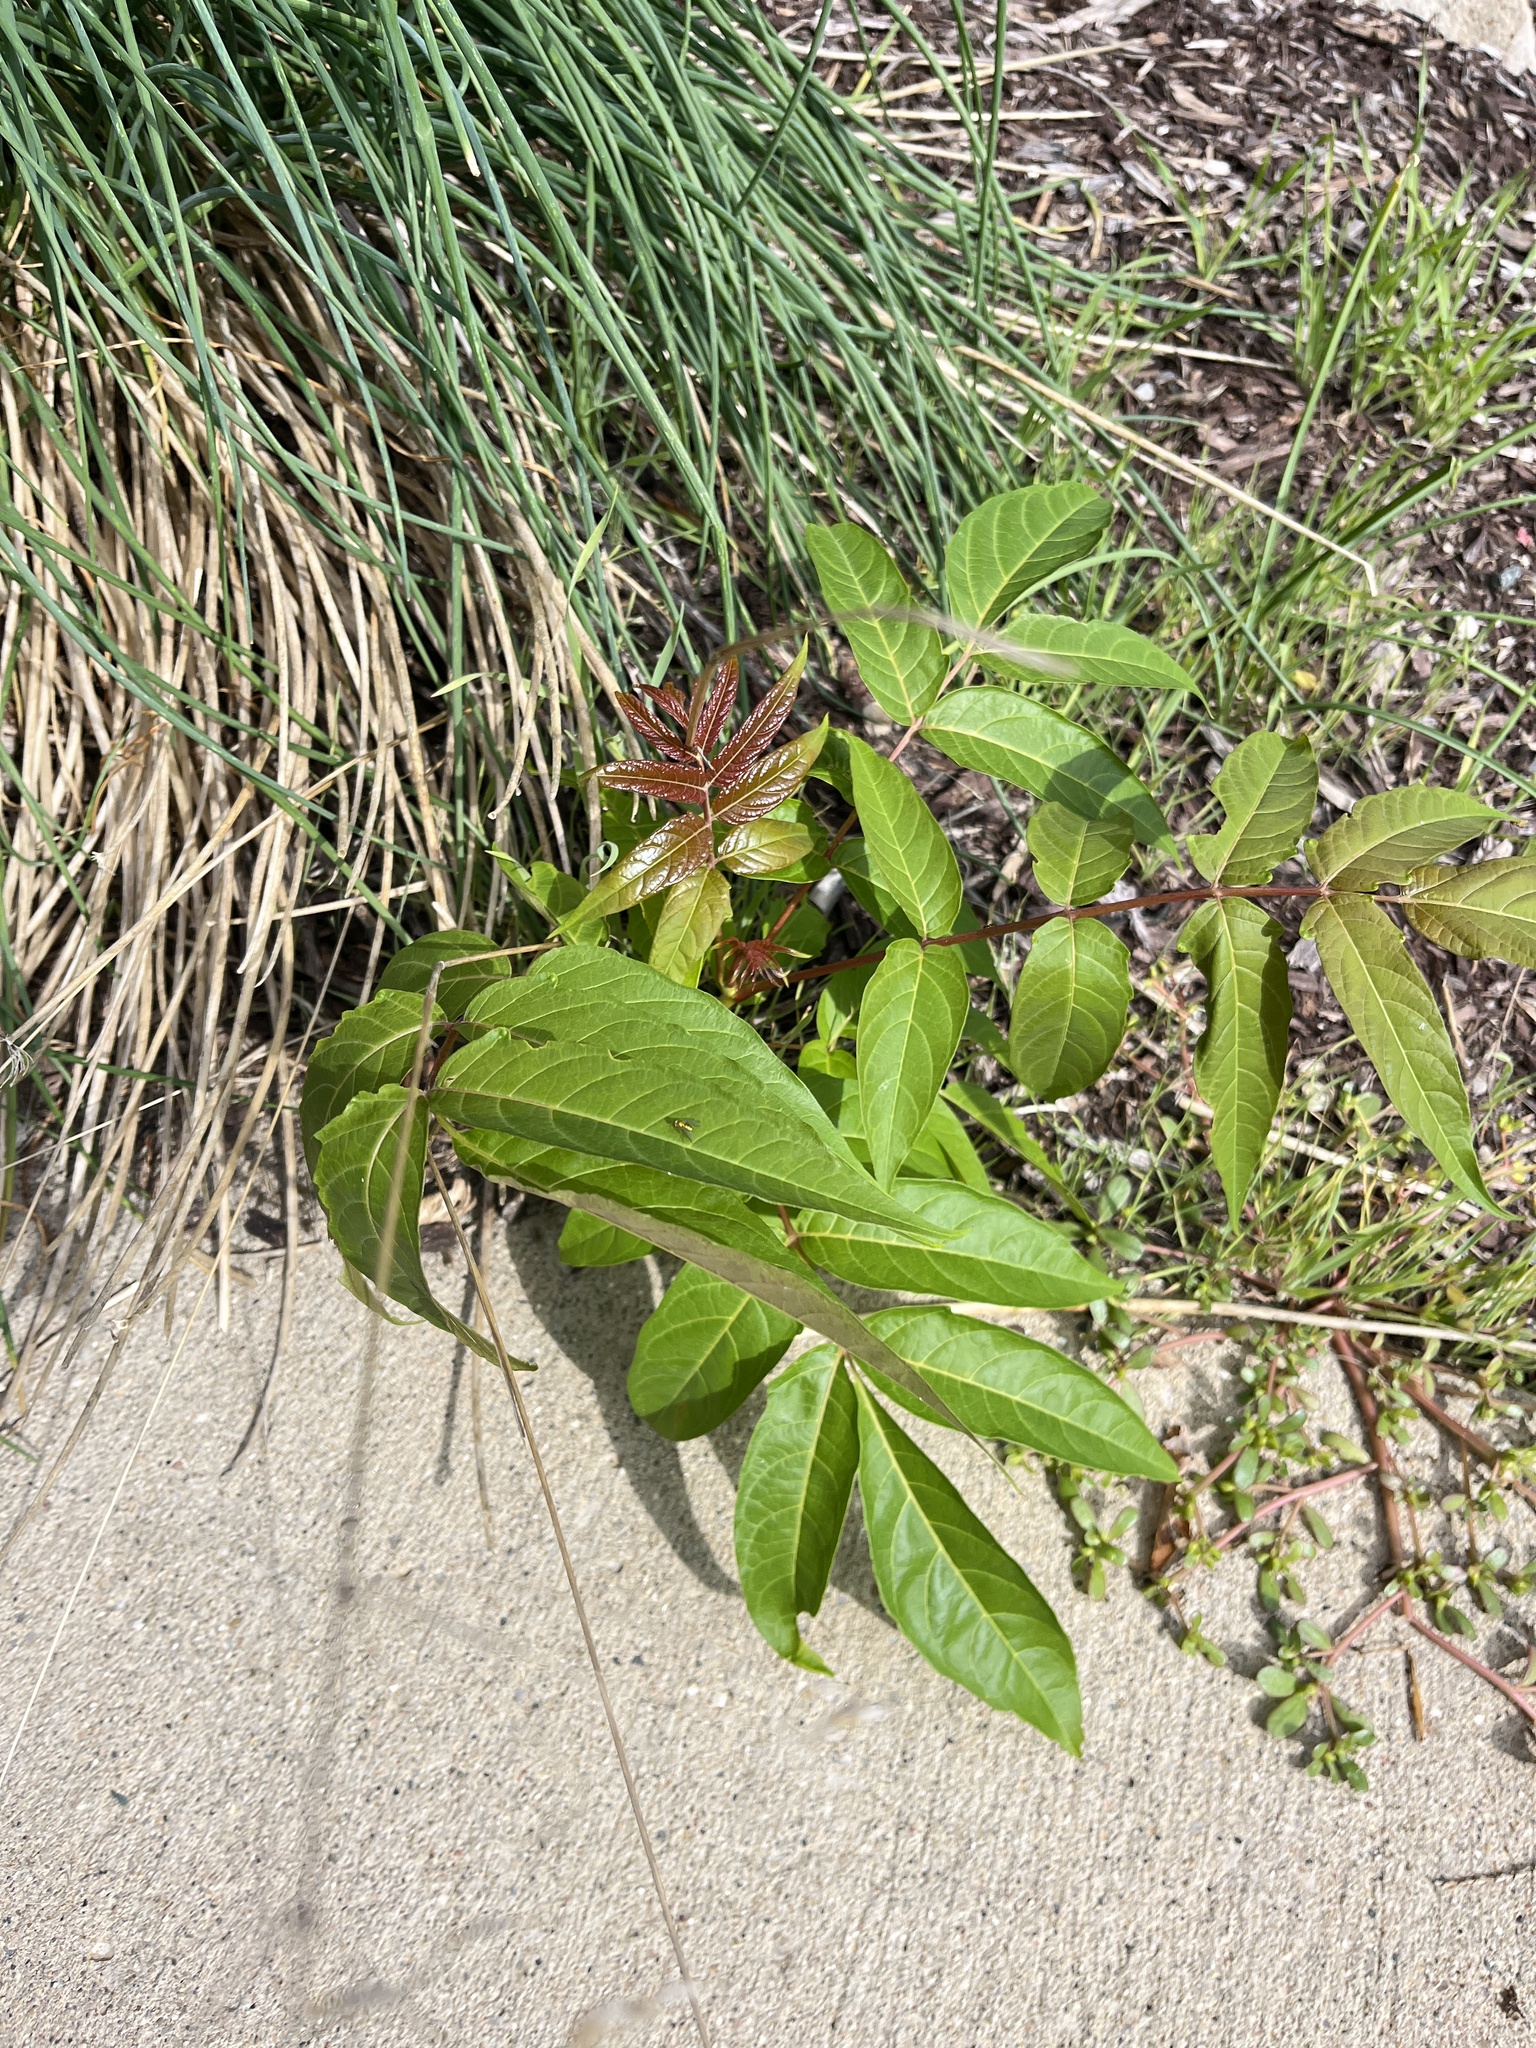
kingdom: Plantae
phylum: Tracheophyta
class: Magnoliopsida
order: Sapindales
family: Simaroubaceae
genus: Ailanthus
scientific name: Ailanthus altissima
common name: Tree-of-heaven
